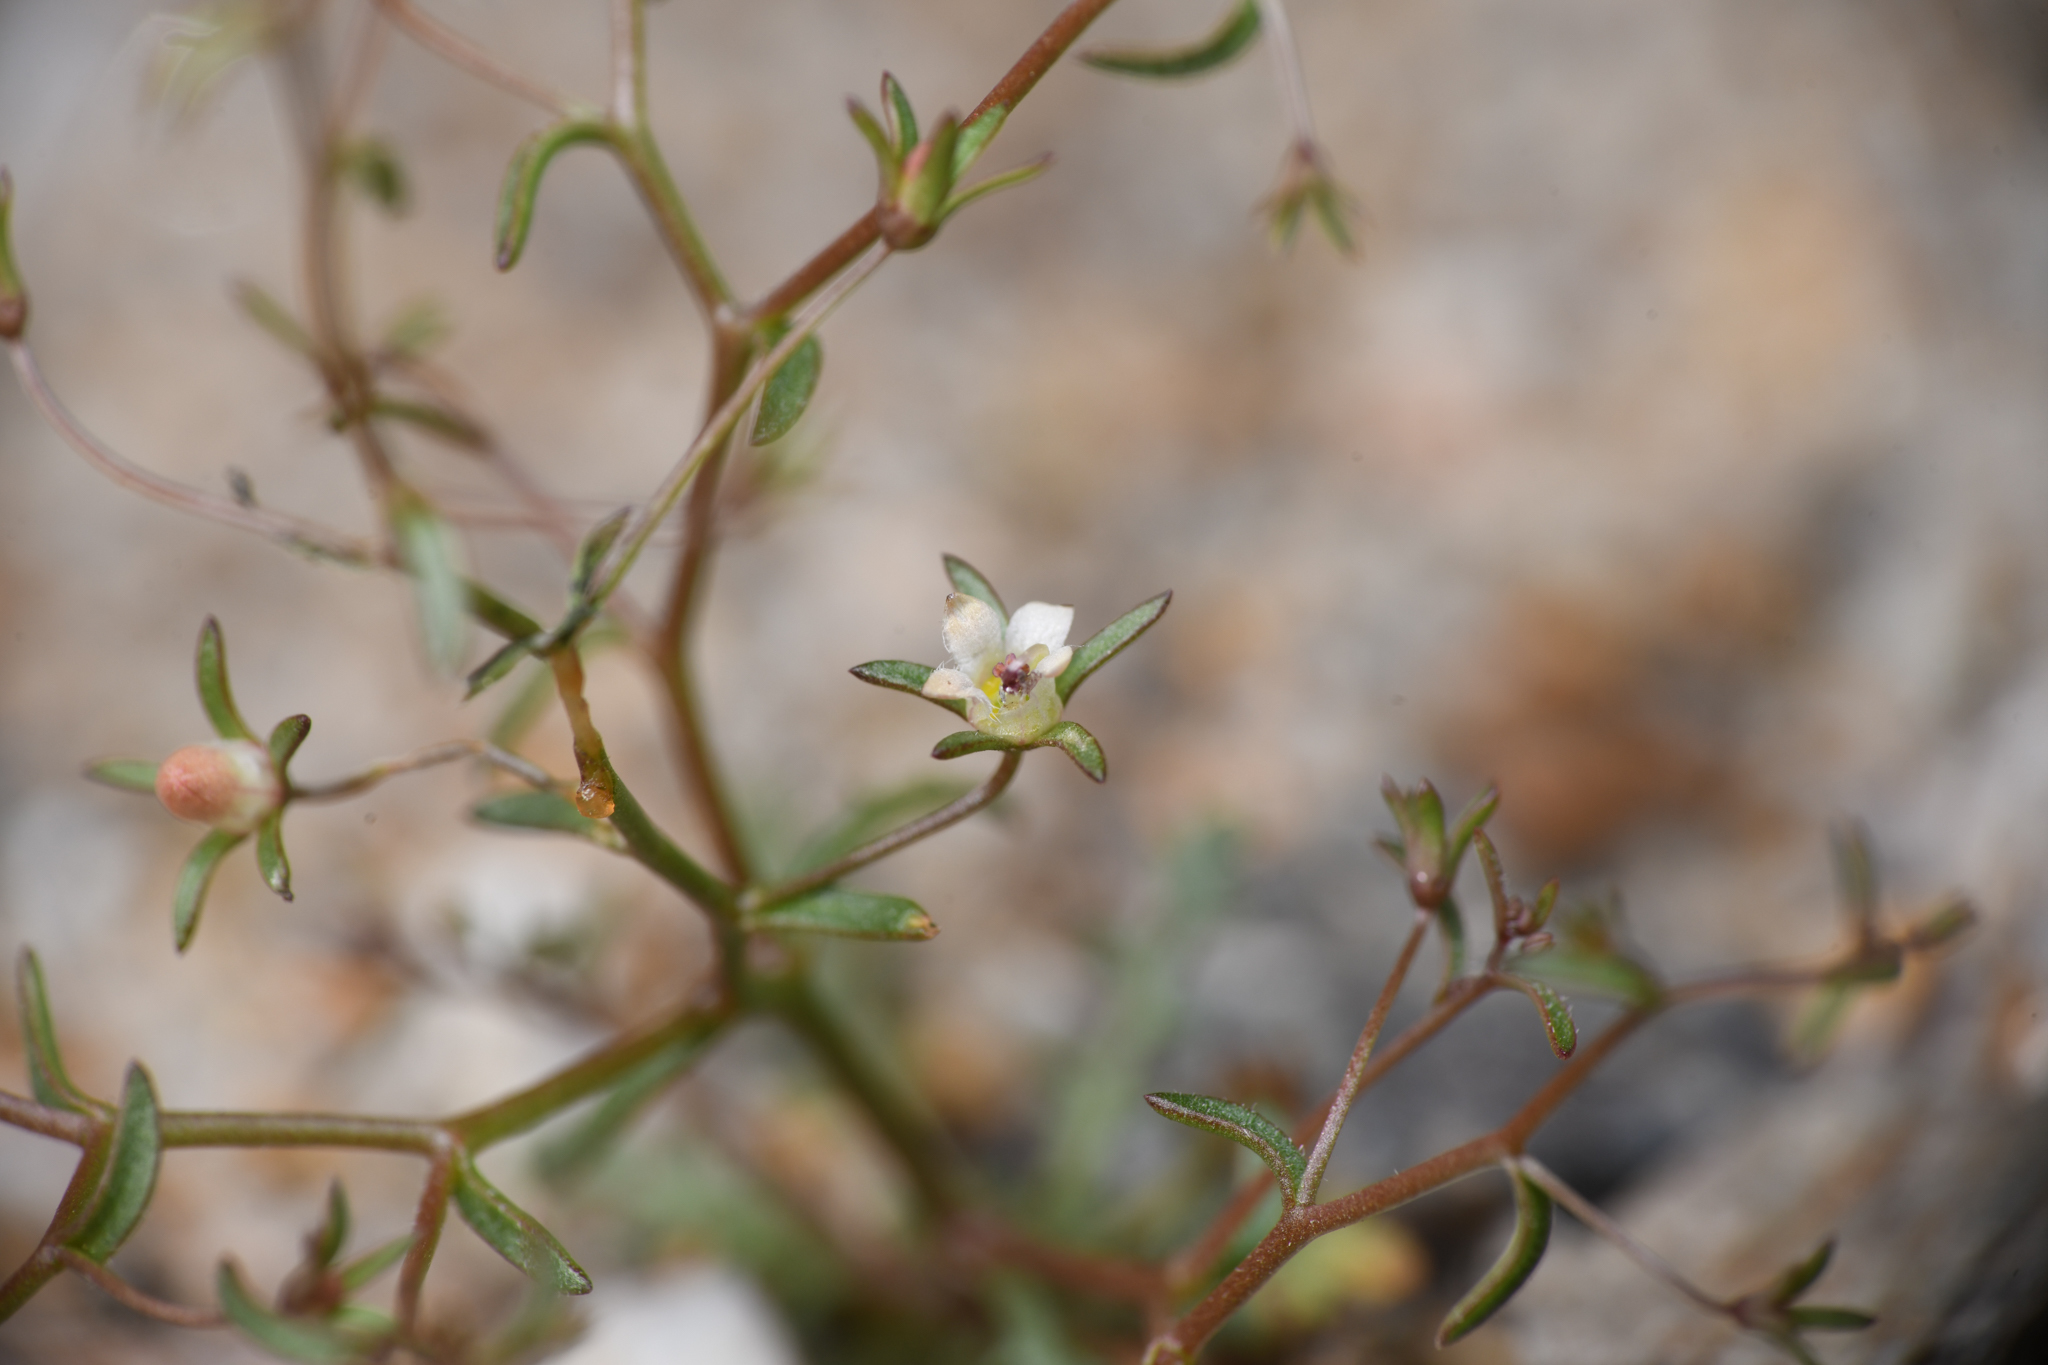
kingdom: Plantae
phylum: Tracheophyta
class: Magnoliopsida
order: Asterales
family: Campanulaceae
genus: Nemacladus
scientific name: Nemacladus glanduliferus
